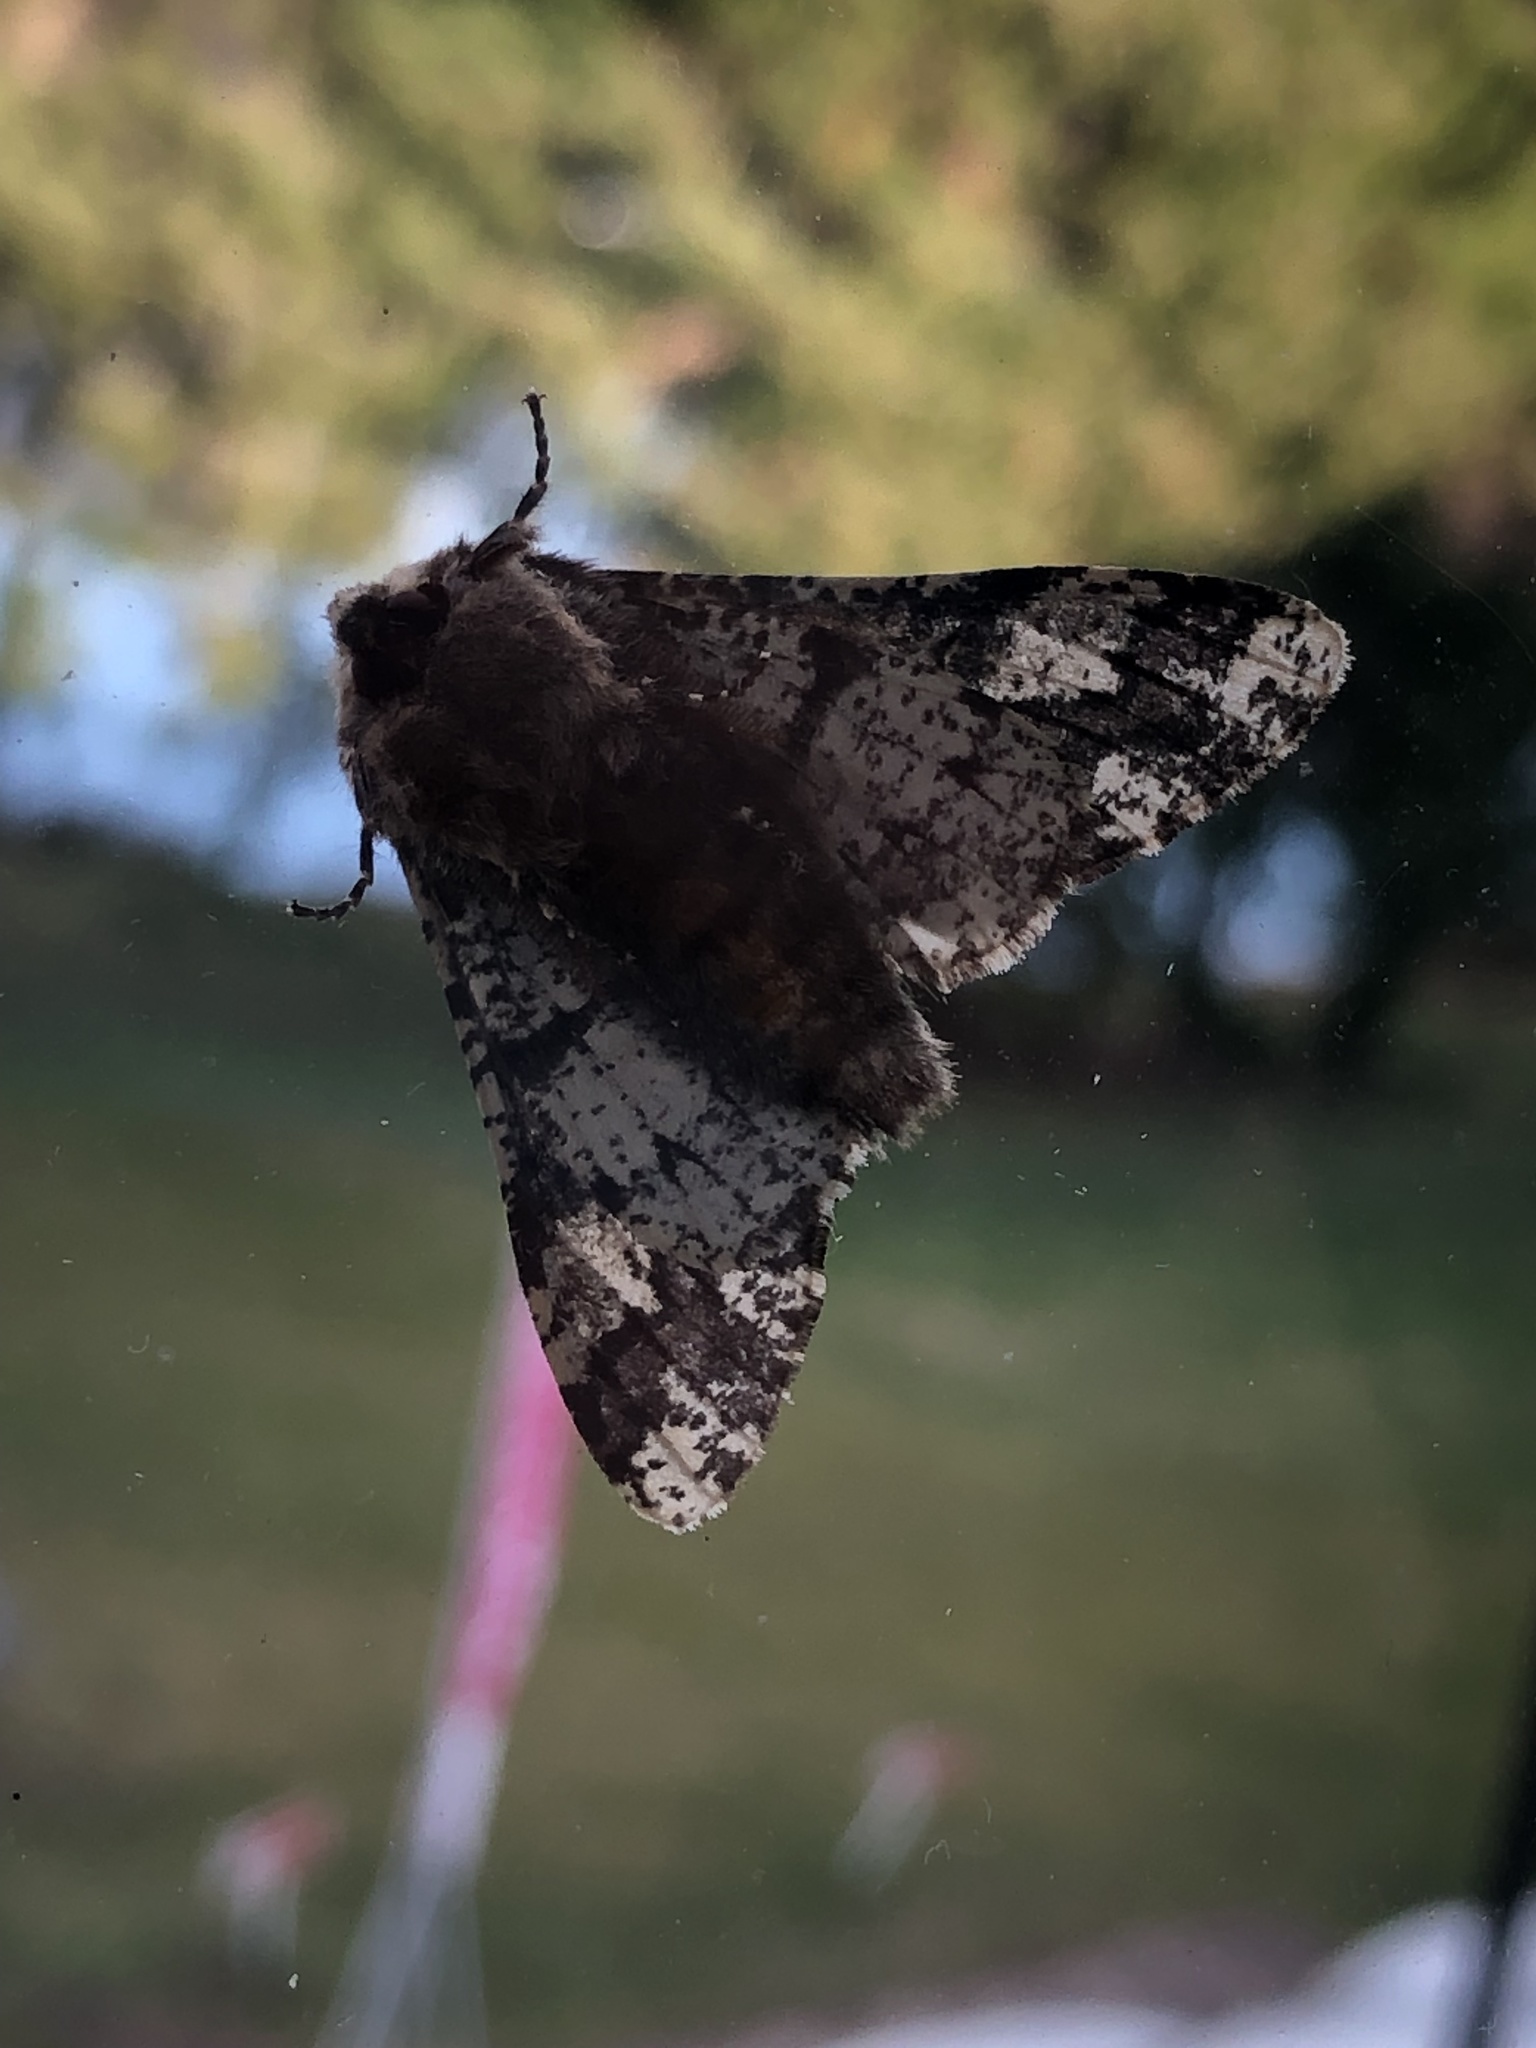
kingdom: Animalia
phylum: Arthropoda
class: Insecta
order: Lepidoptera
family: Geometridae
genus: Biston
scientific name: Biston strataria
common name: Oak beauty
